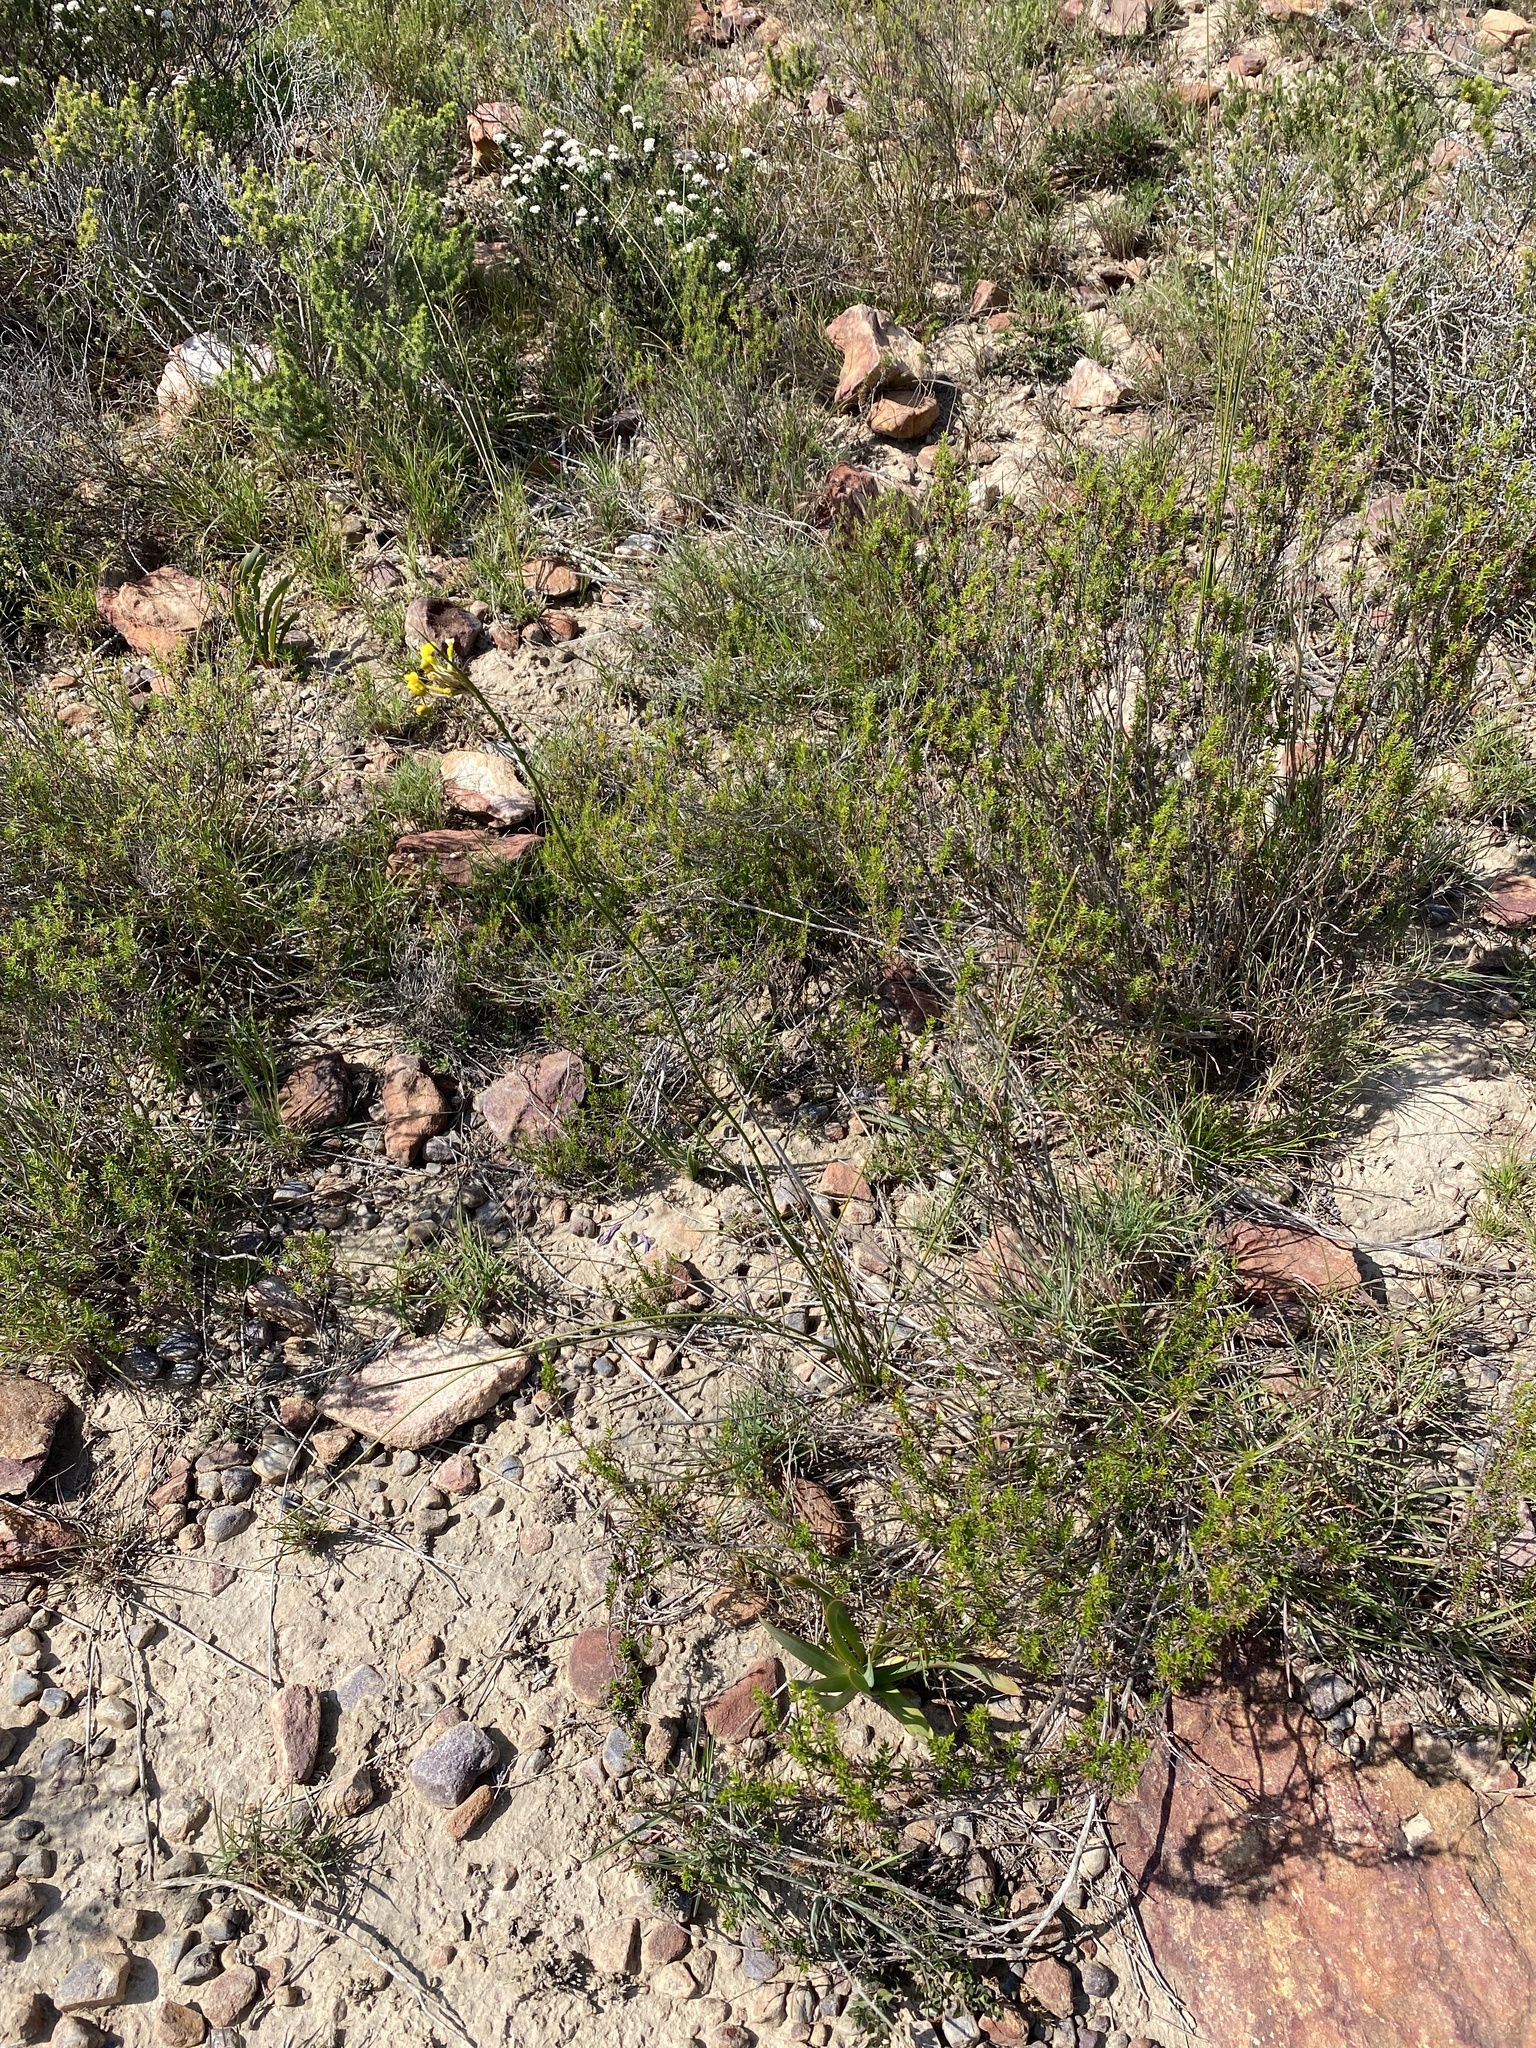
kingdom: Plantae
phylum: Tracheophyta
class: Liliopsida
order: Asparagales
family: Iridaceae
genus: Bobartia
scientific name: Bobartia orientalis
